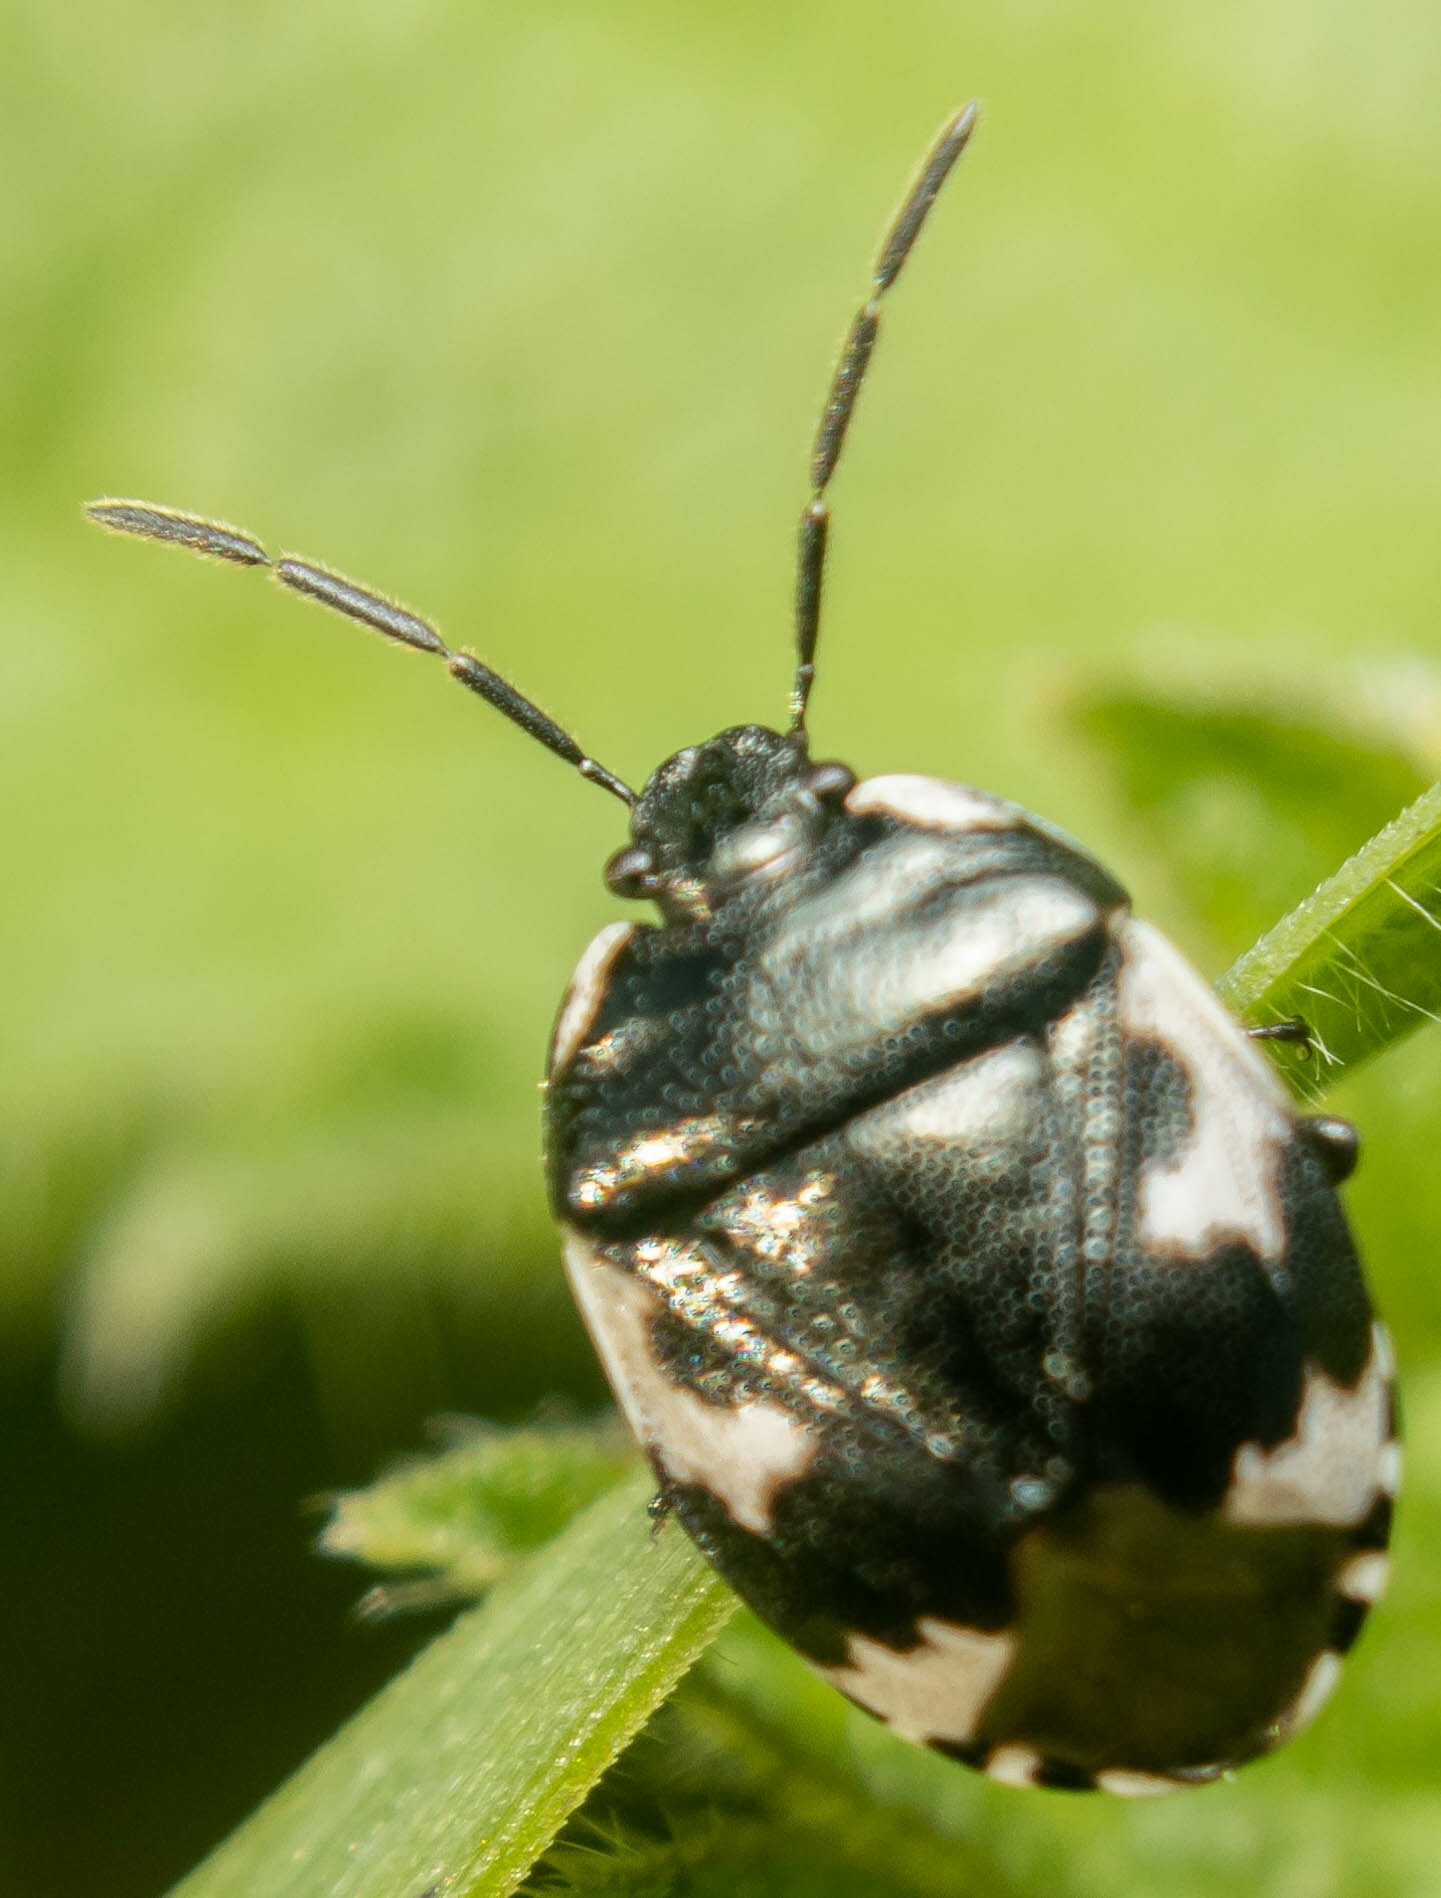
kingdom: Animalia
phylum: Arthropoda
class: Insecta
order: Hemiptera
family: Cydnidae
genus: Tritomegas
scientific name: Tritomegas bicolor
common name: Pied shieldbug
